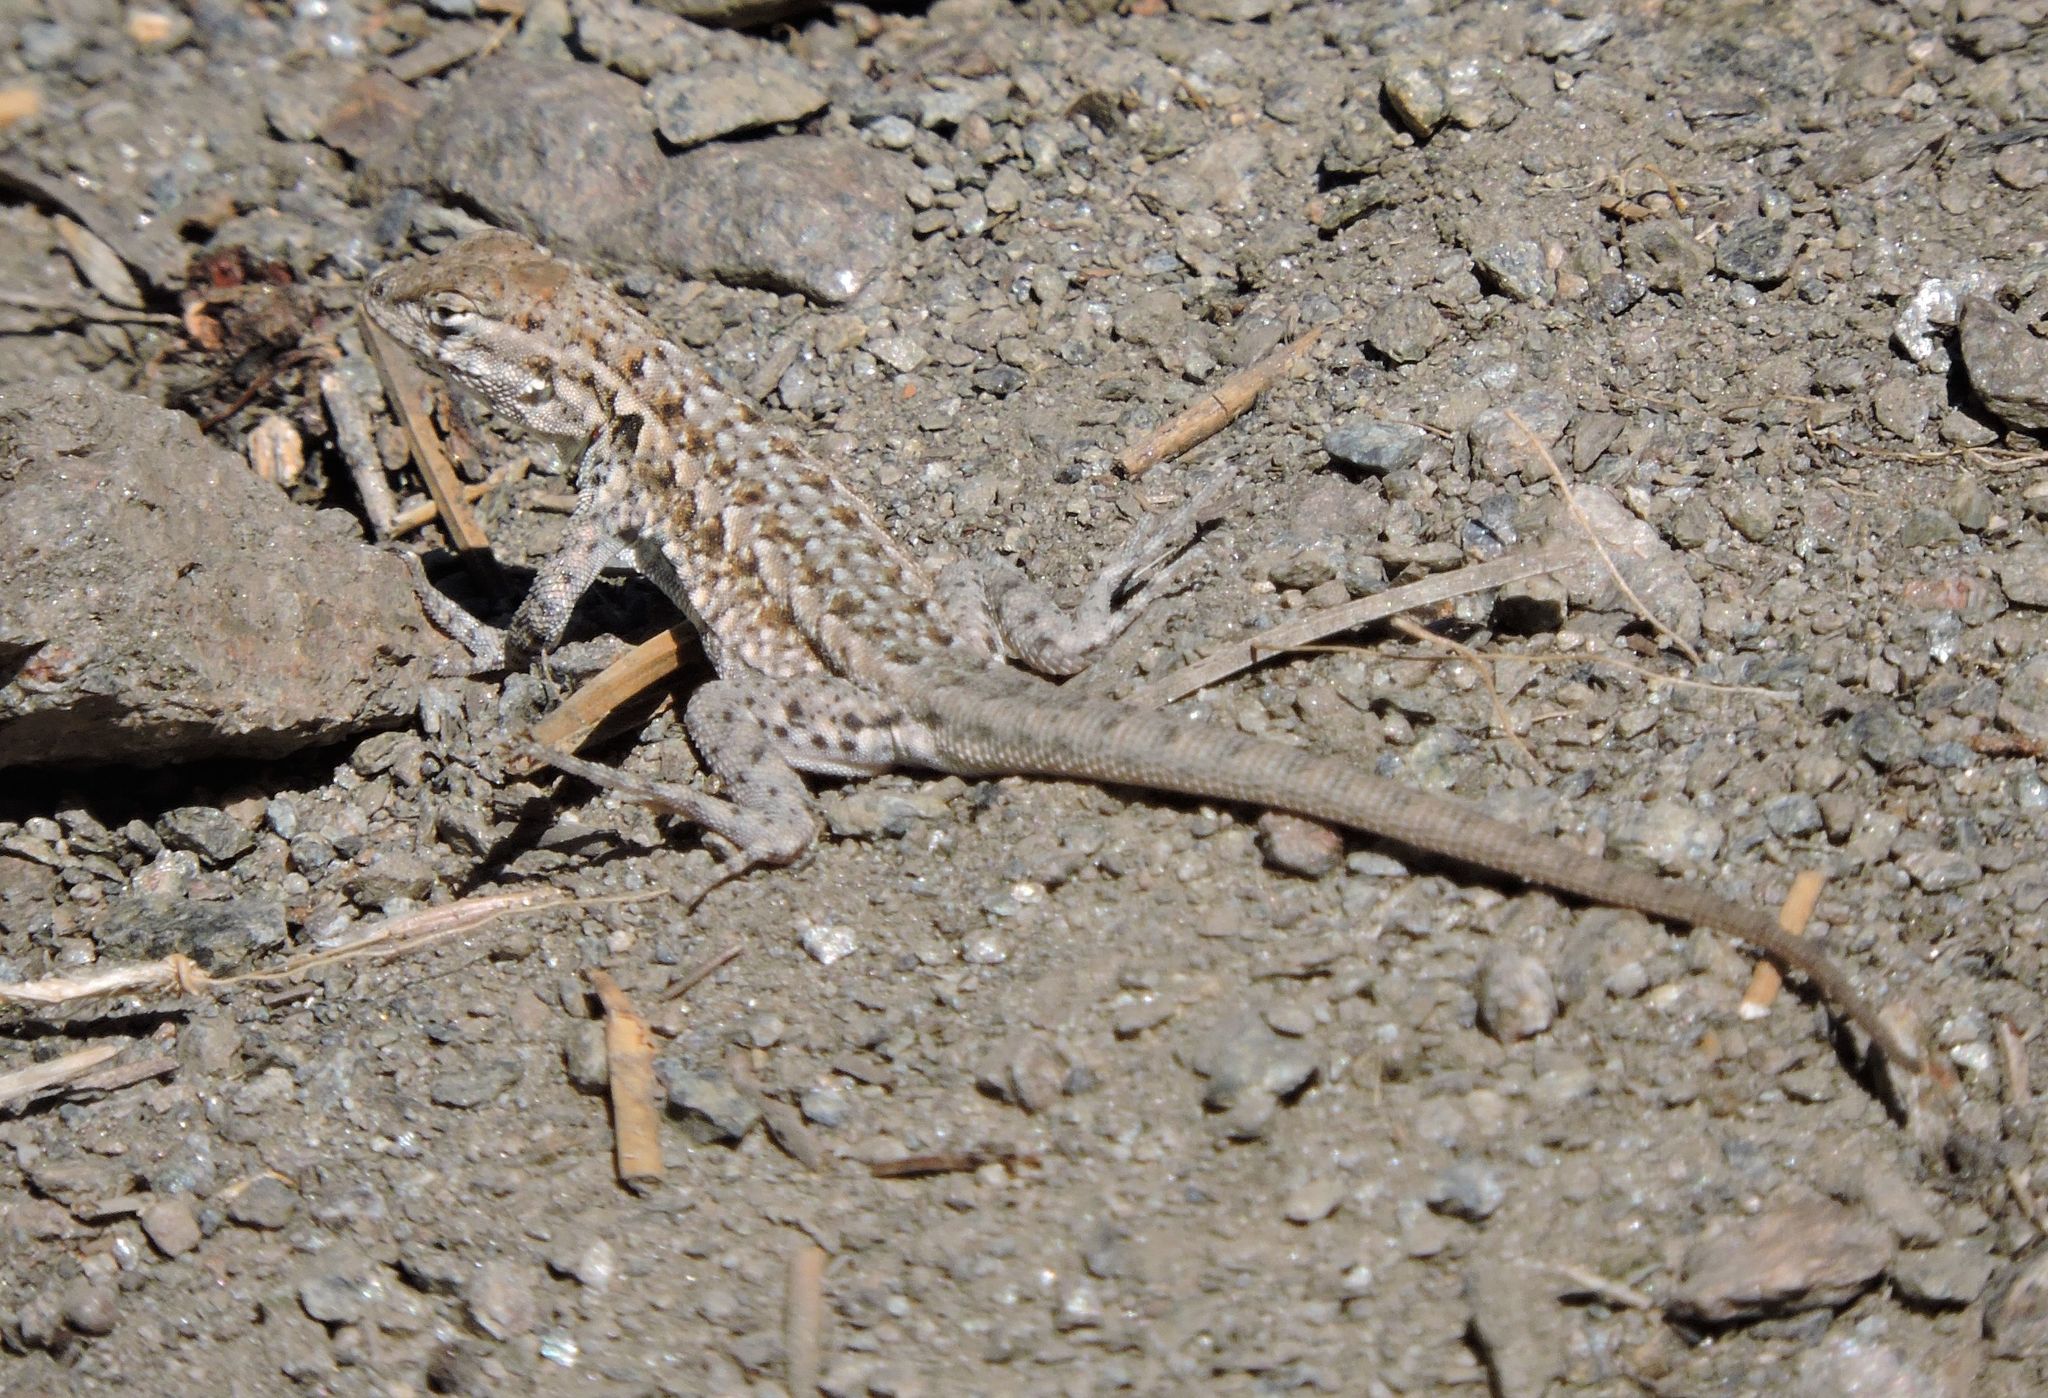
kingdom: Animalia
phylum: Chordata
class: Squamata
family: Phrynosomatidae
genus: Uta
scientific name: Uta stansburiana
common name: Side-blotched lizard
